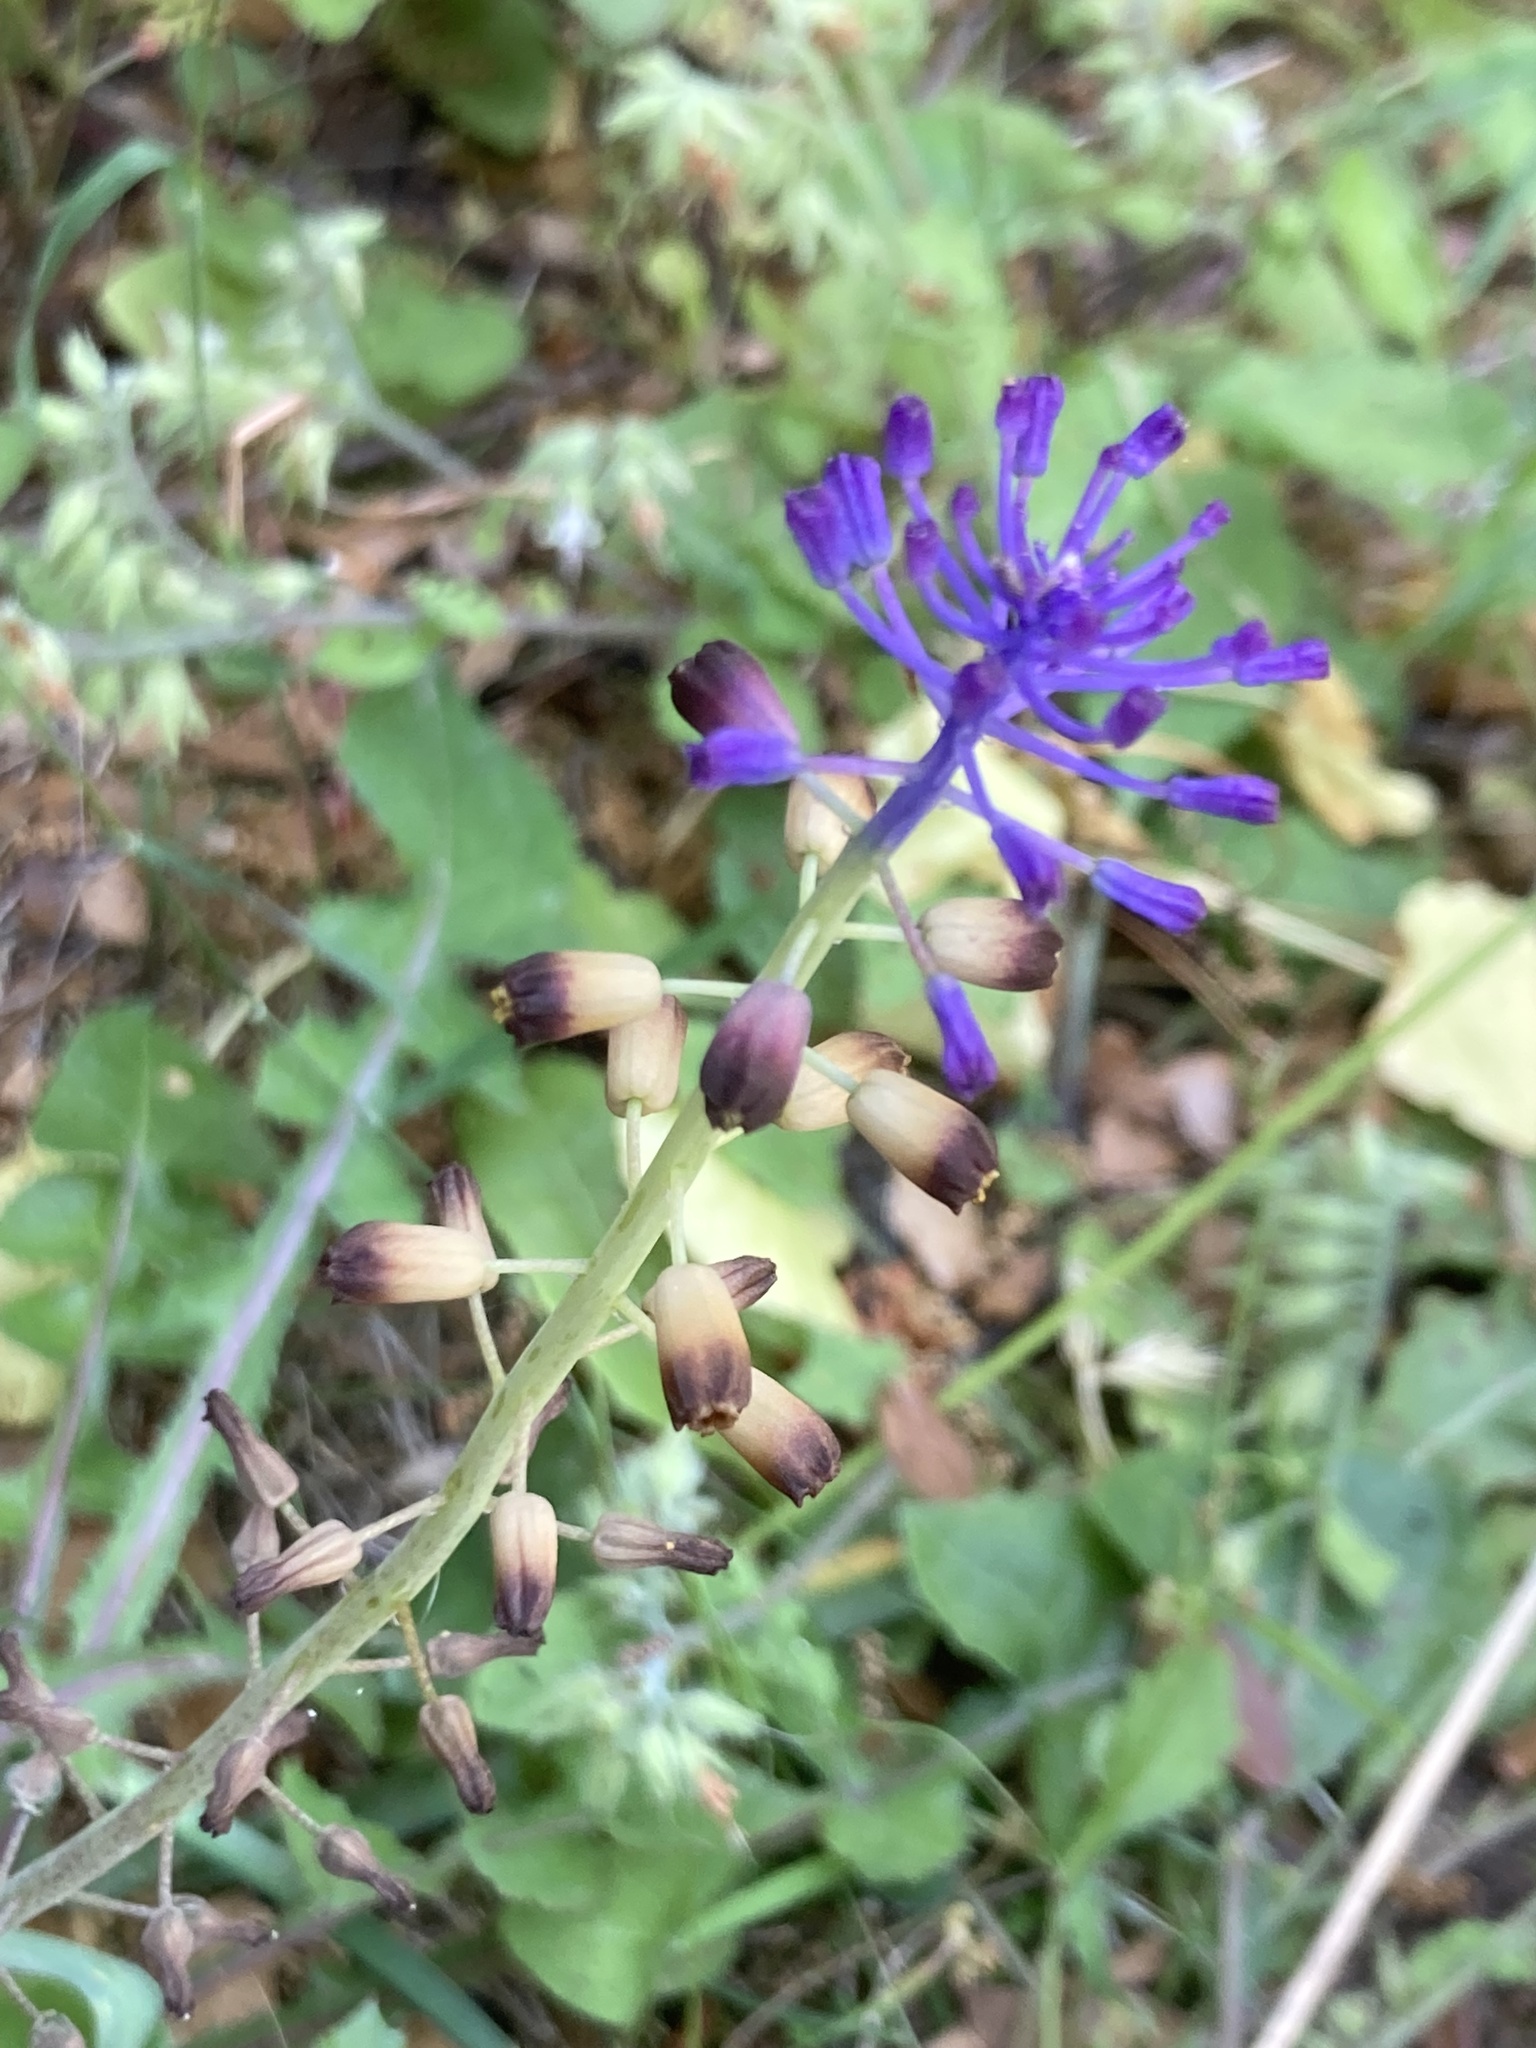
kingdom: Plantae
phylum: Tracheophyta
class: Liliopsida
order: Asparagales
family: Asparagaceae
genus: Muscari
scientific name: Muscari
